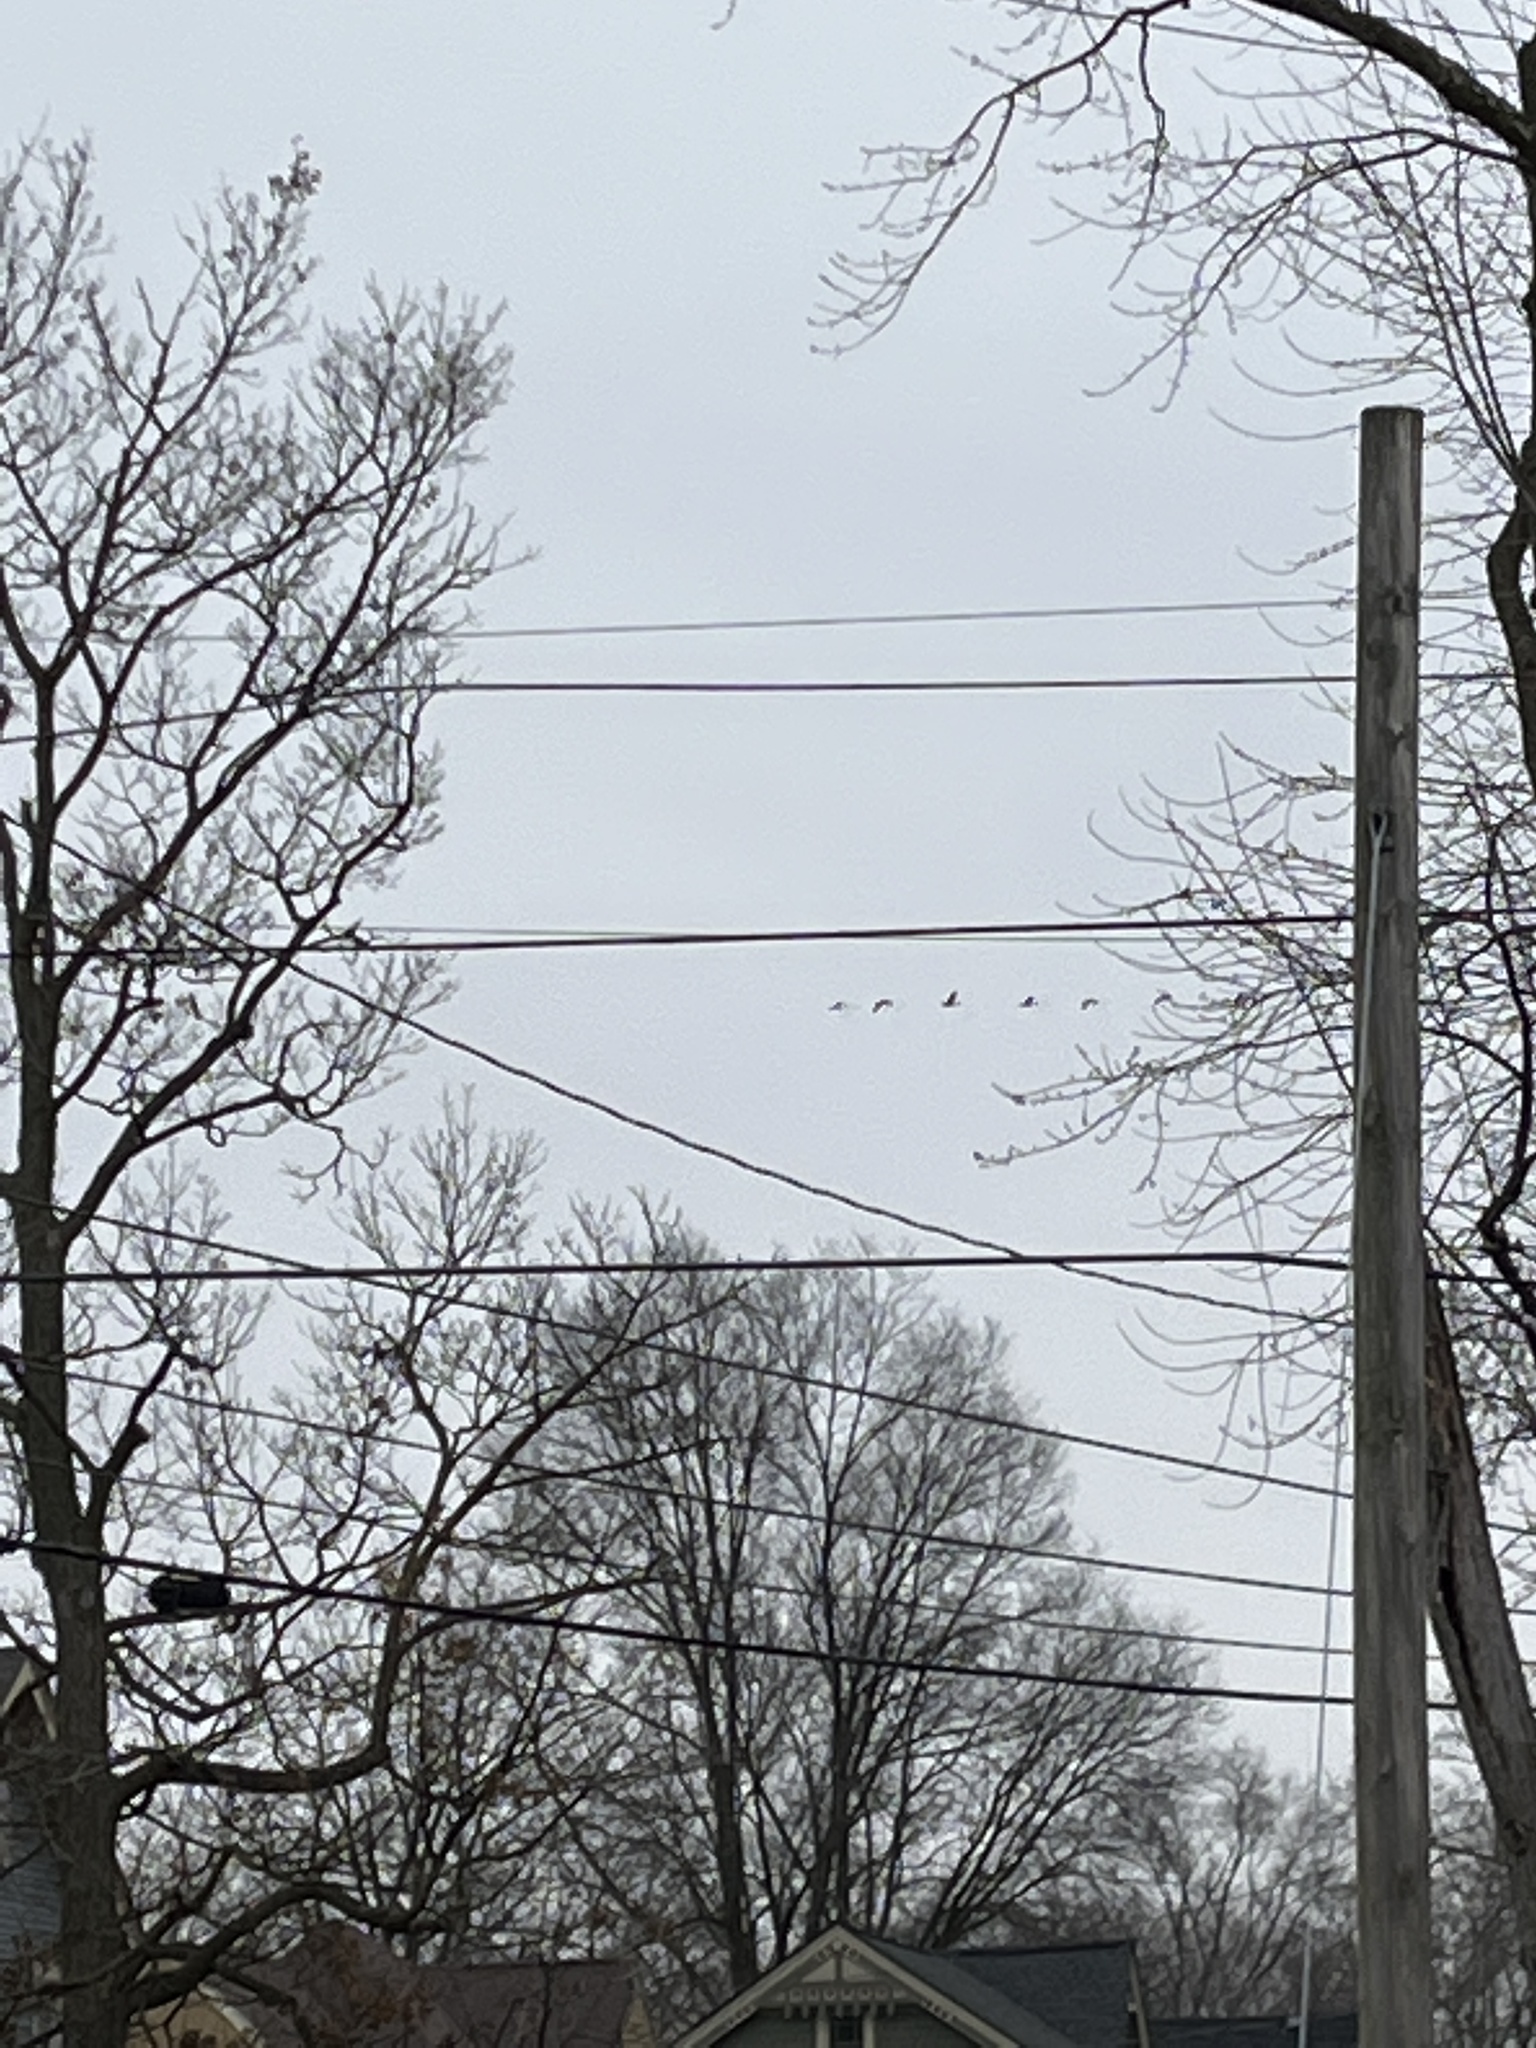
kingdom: Animalia
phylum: Chordata
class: Aves
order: Anseriformes
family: Anatidae
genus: Branta
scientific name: Branta canadensis
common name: Canada goose
